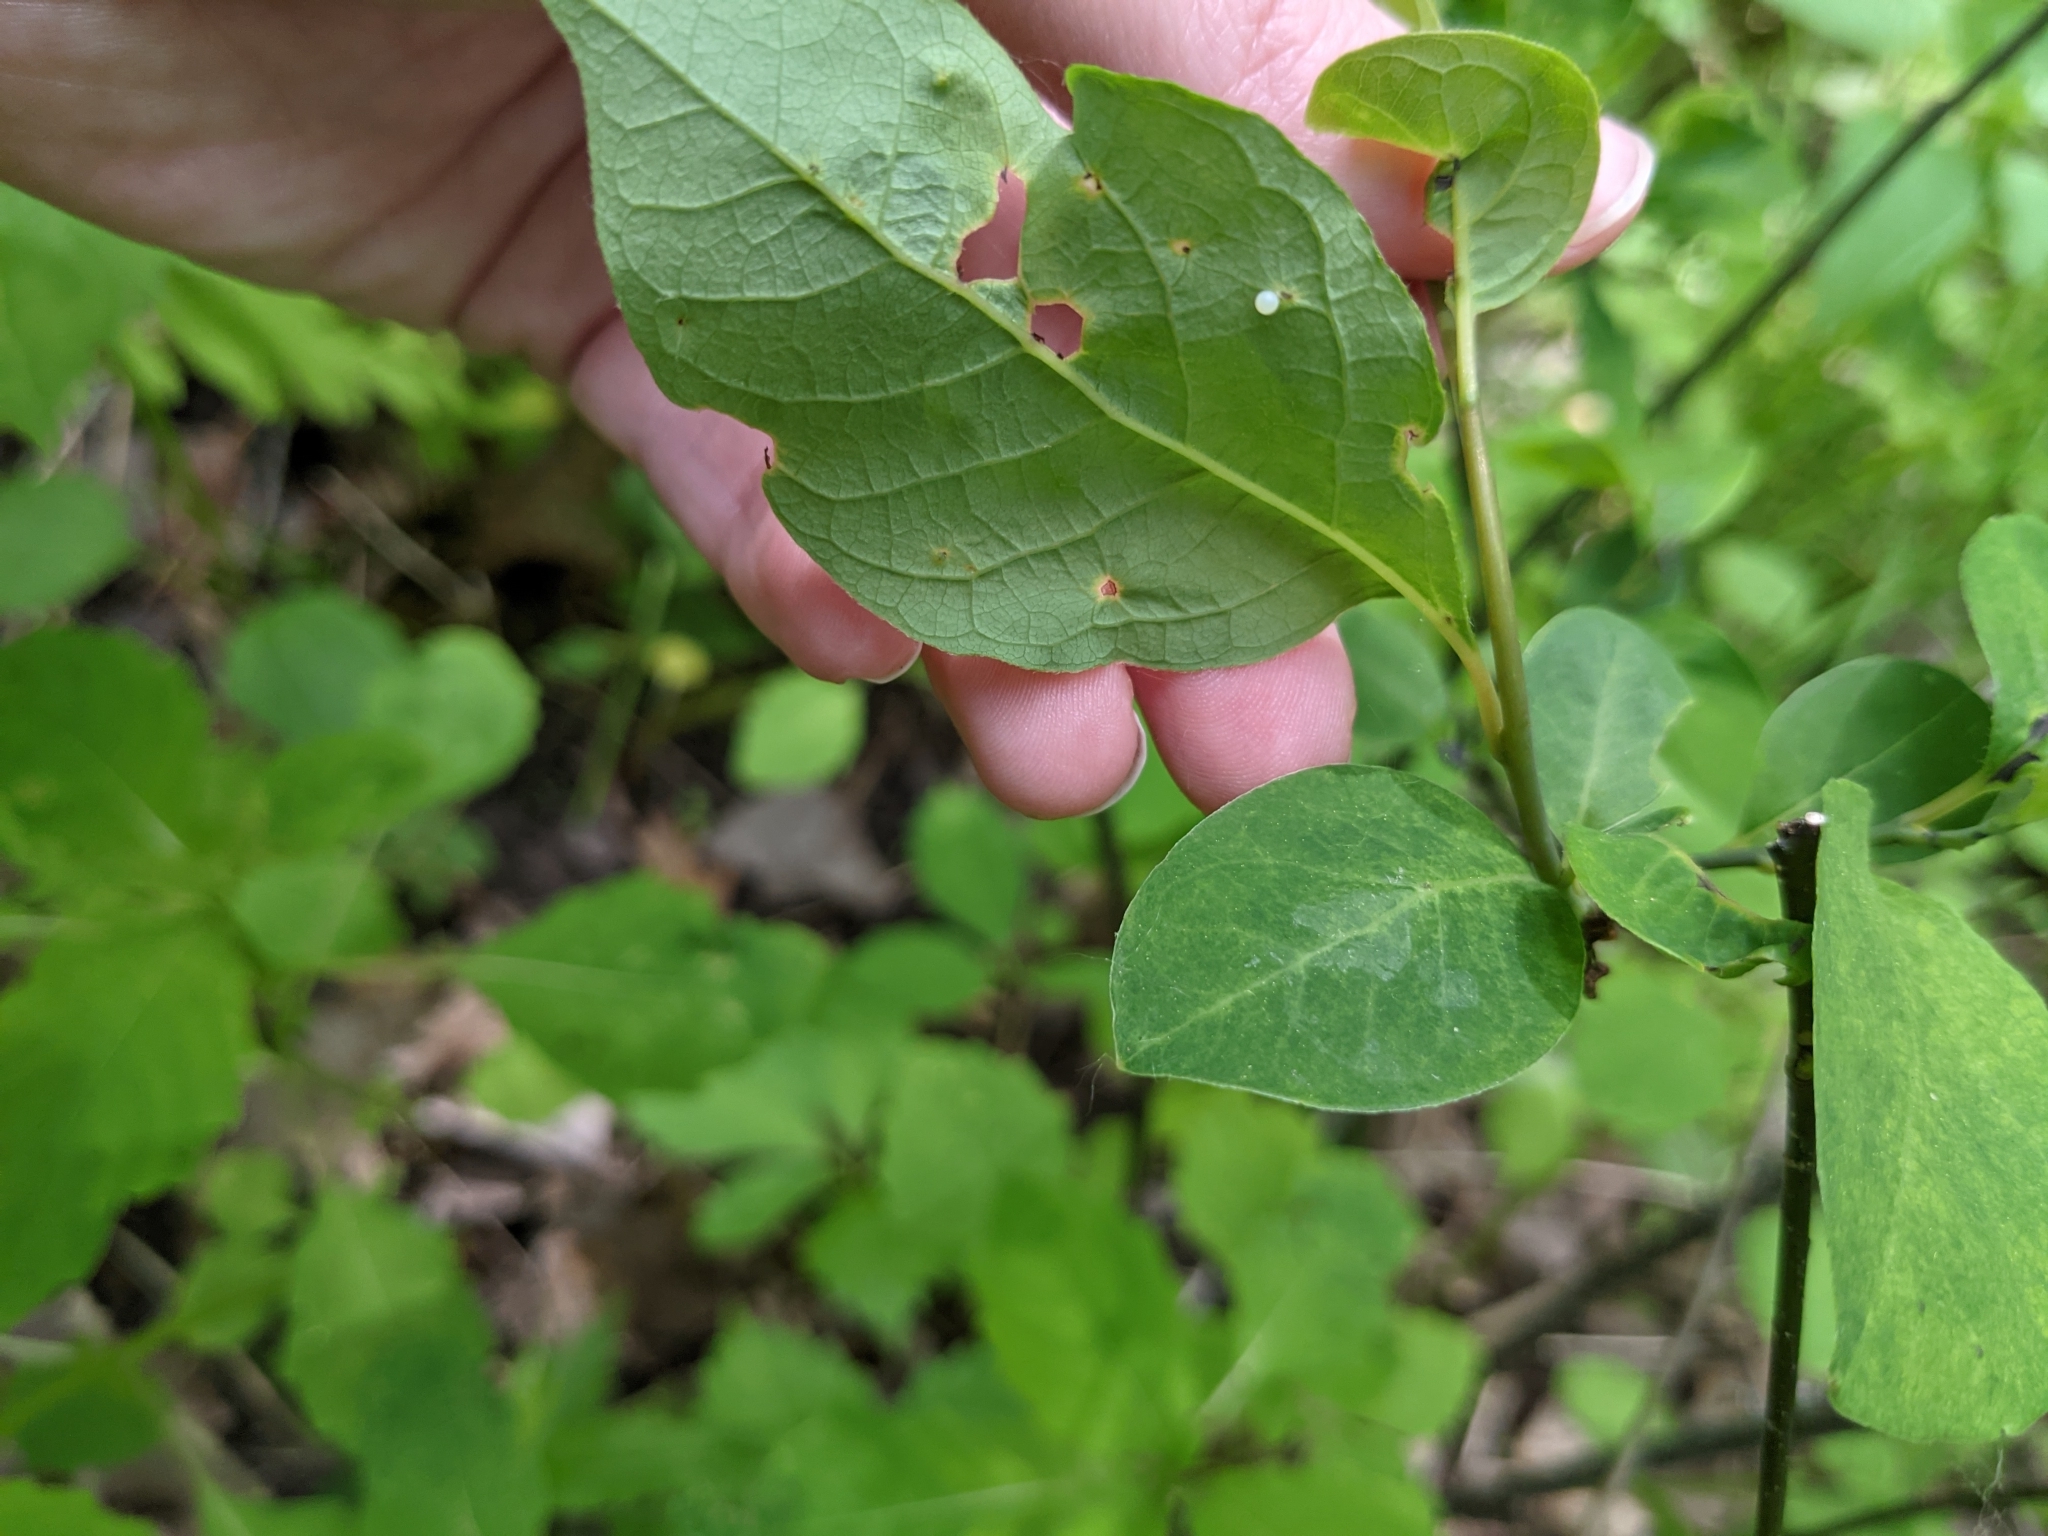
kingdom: Animalia
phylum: Arthropoda
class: Insecta
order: Lepidoptera
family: Papilionidae
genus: Papilio
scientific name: Papilio troilus
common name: Spicebush swallowtail
